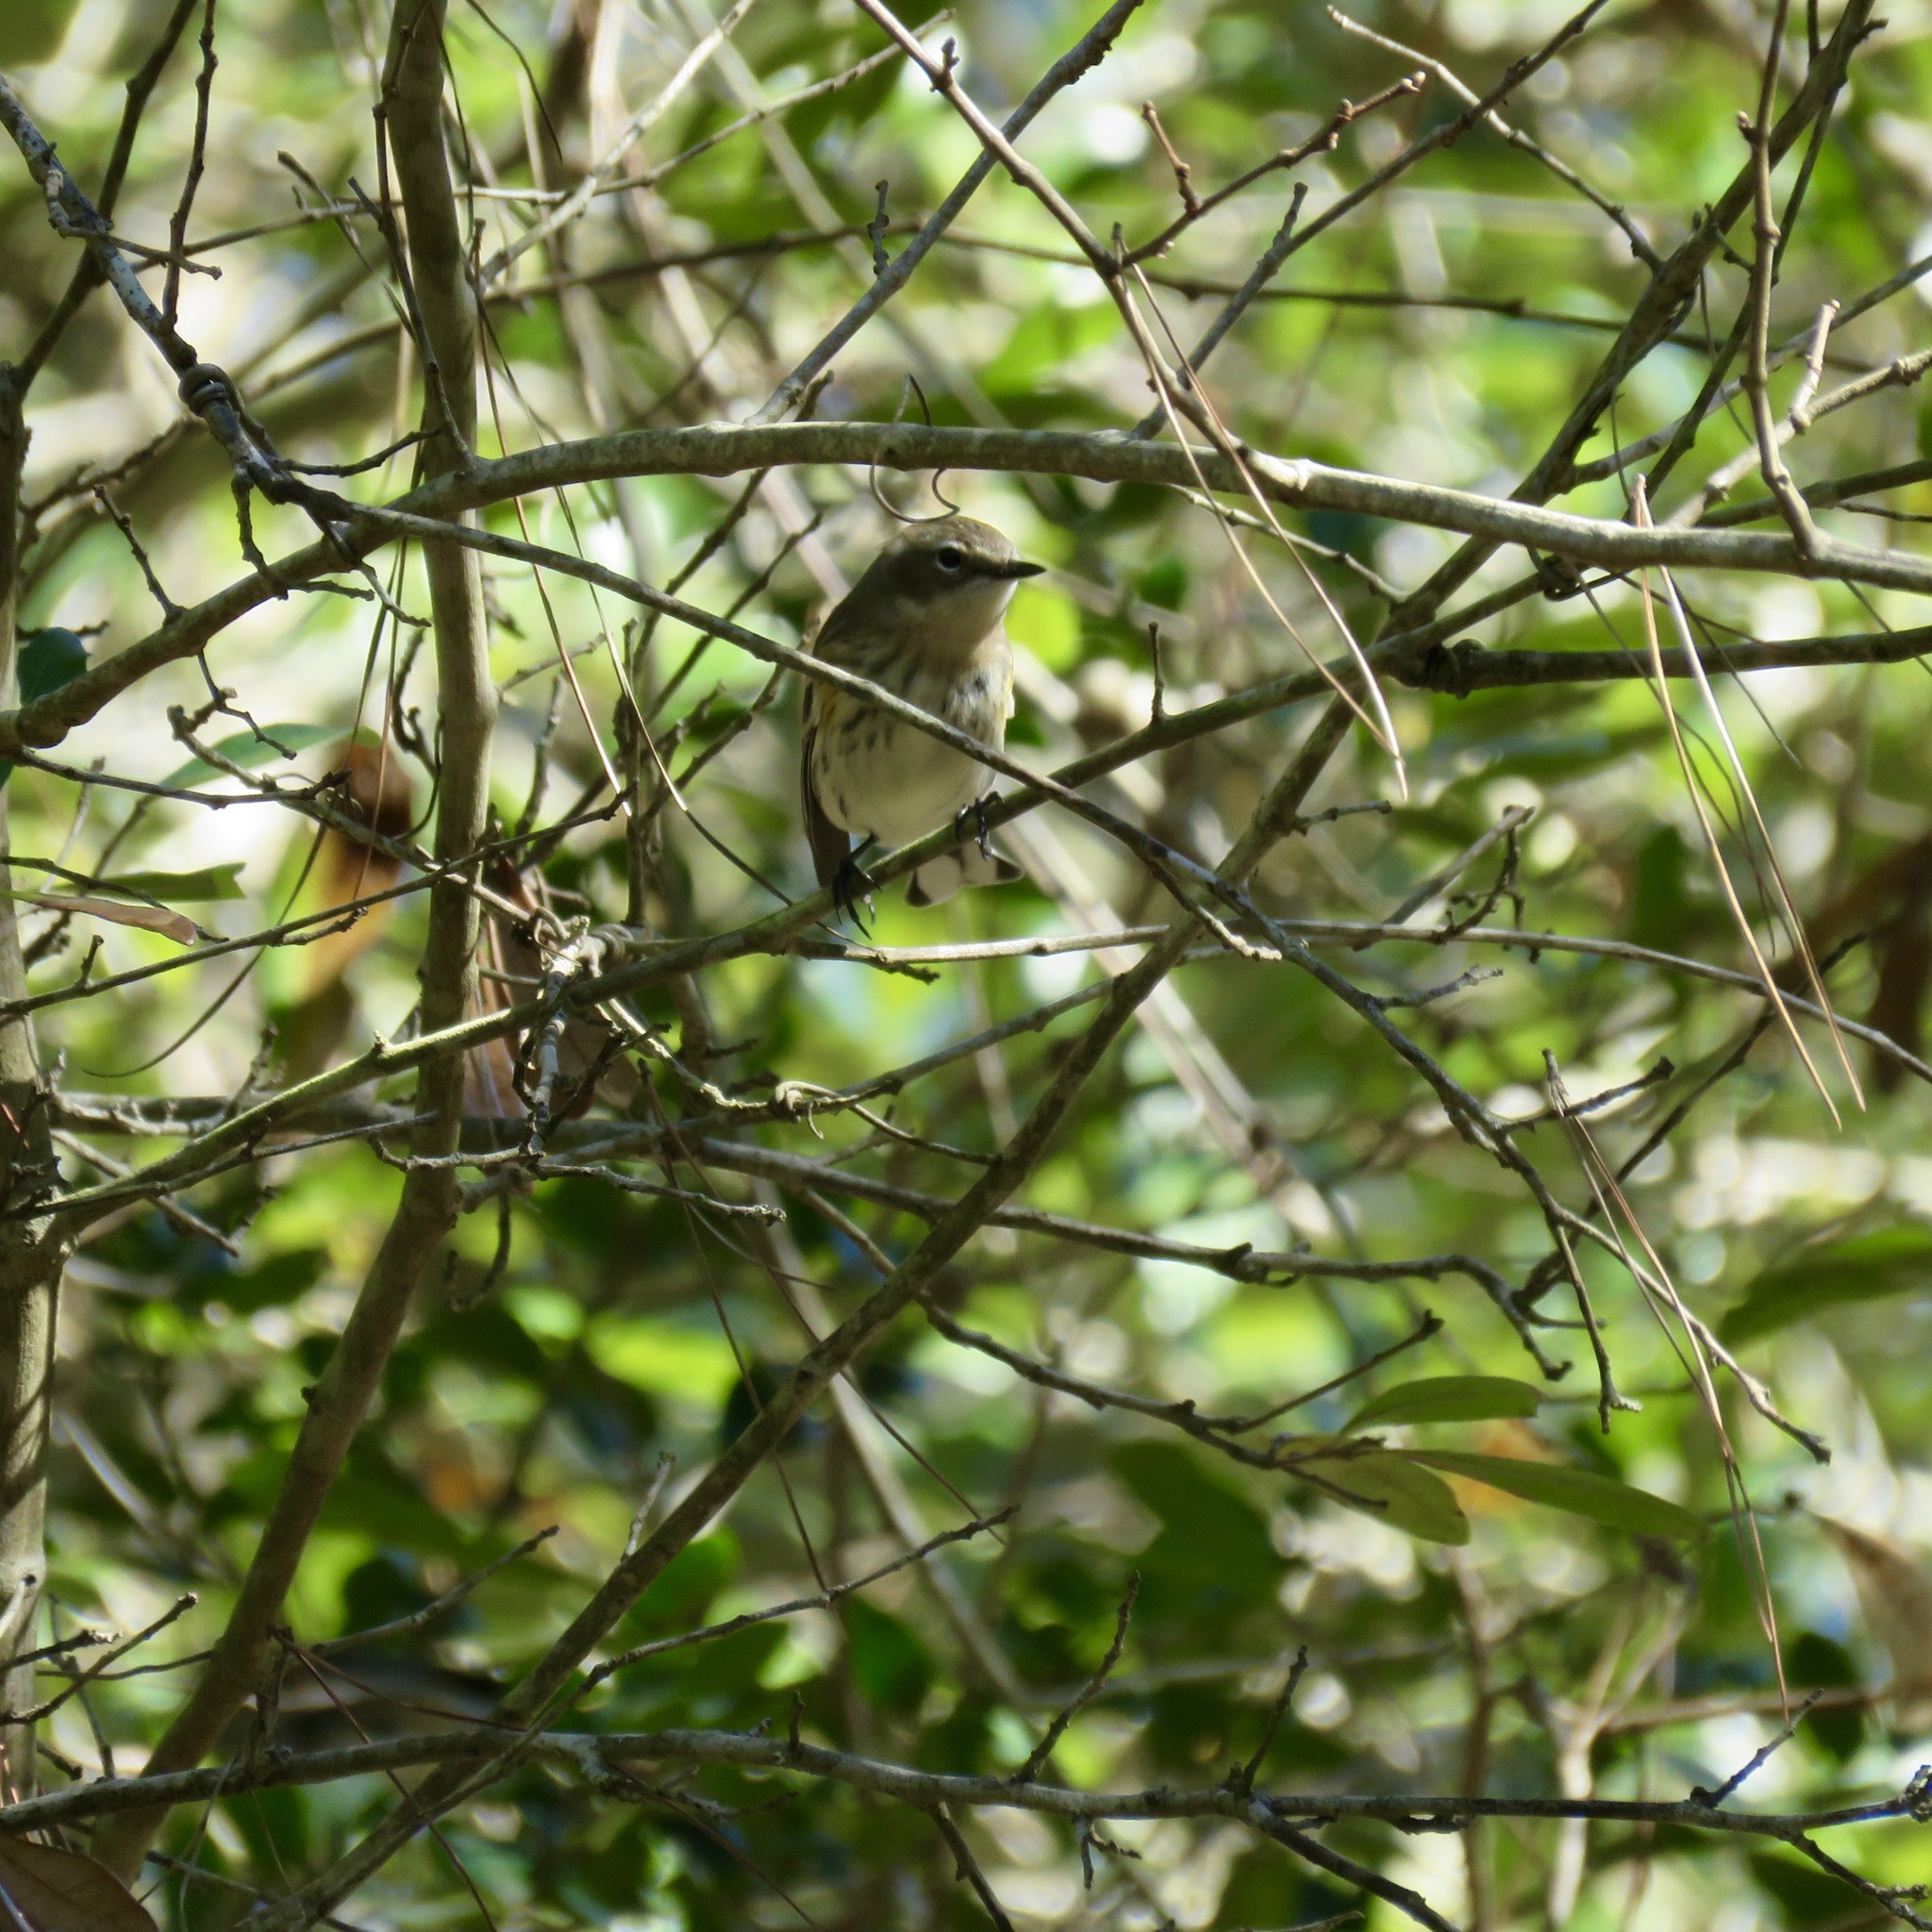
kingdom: Animalia
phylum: Chordata
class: Aves
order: Passeriformes
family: Parulidae
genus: Setophaga
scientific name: Setophaga coronata
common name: Myrtle warbler
